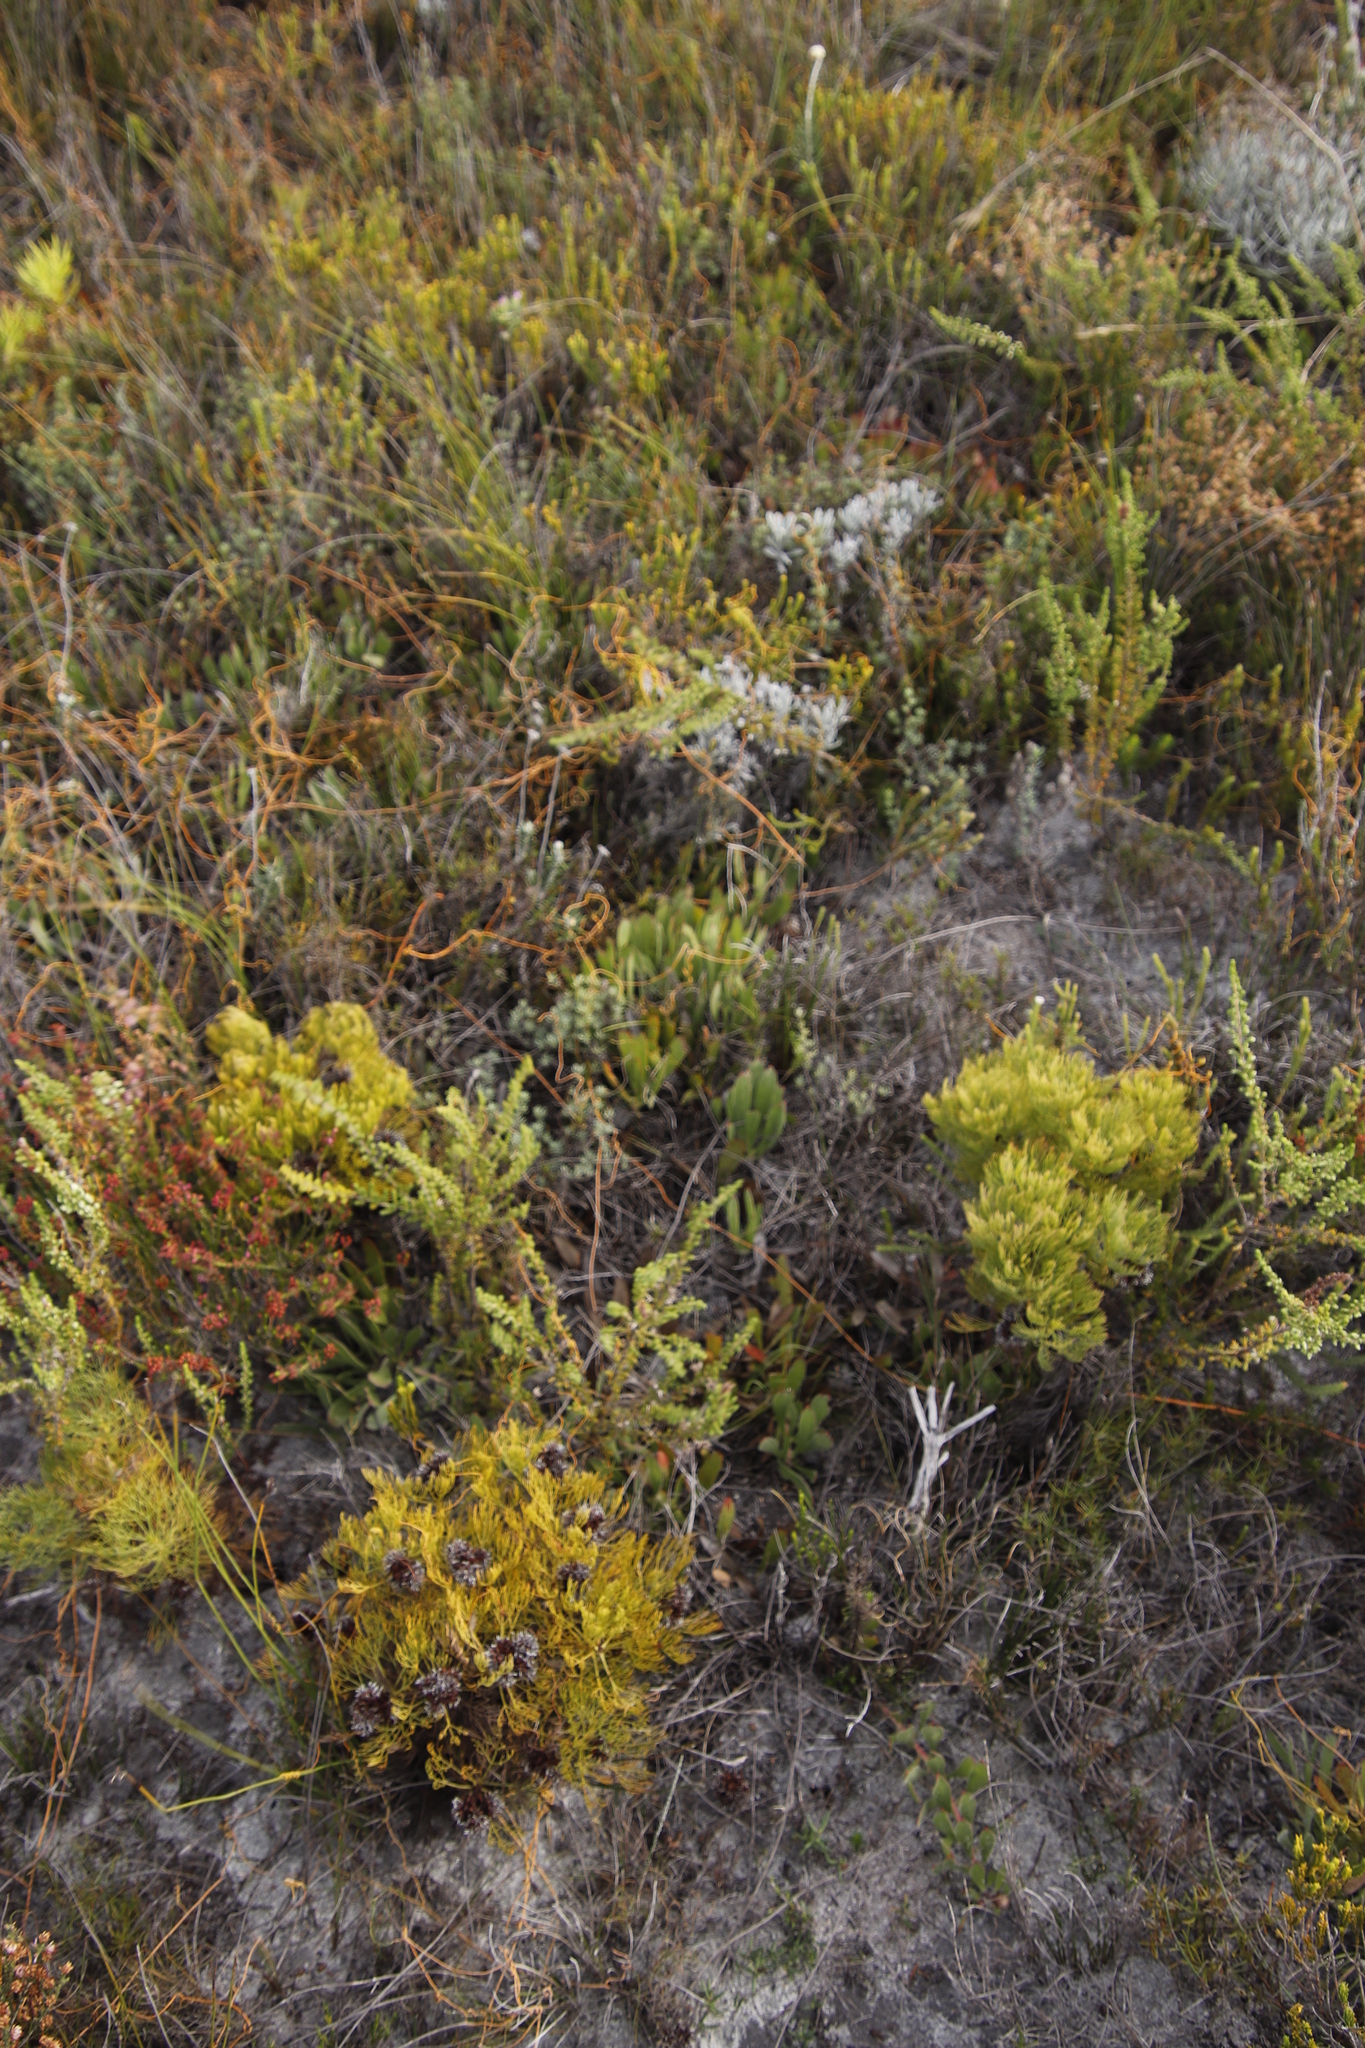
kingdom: Plantae
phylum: Tracheophyta
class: Magnoliopsida
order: Proteales
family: Proteaceae
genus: Serruria
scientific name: Serruria glomerata
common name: Cluster spiderhead
